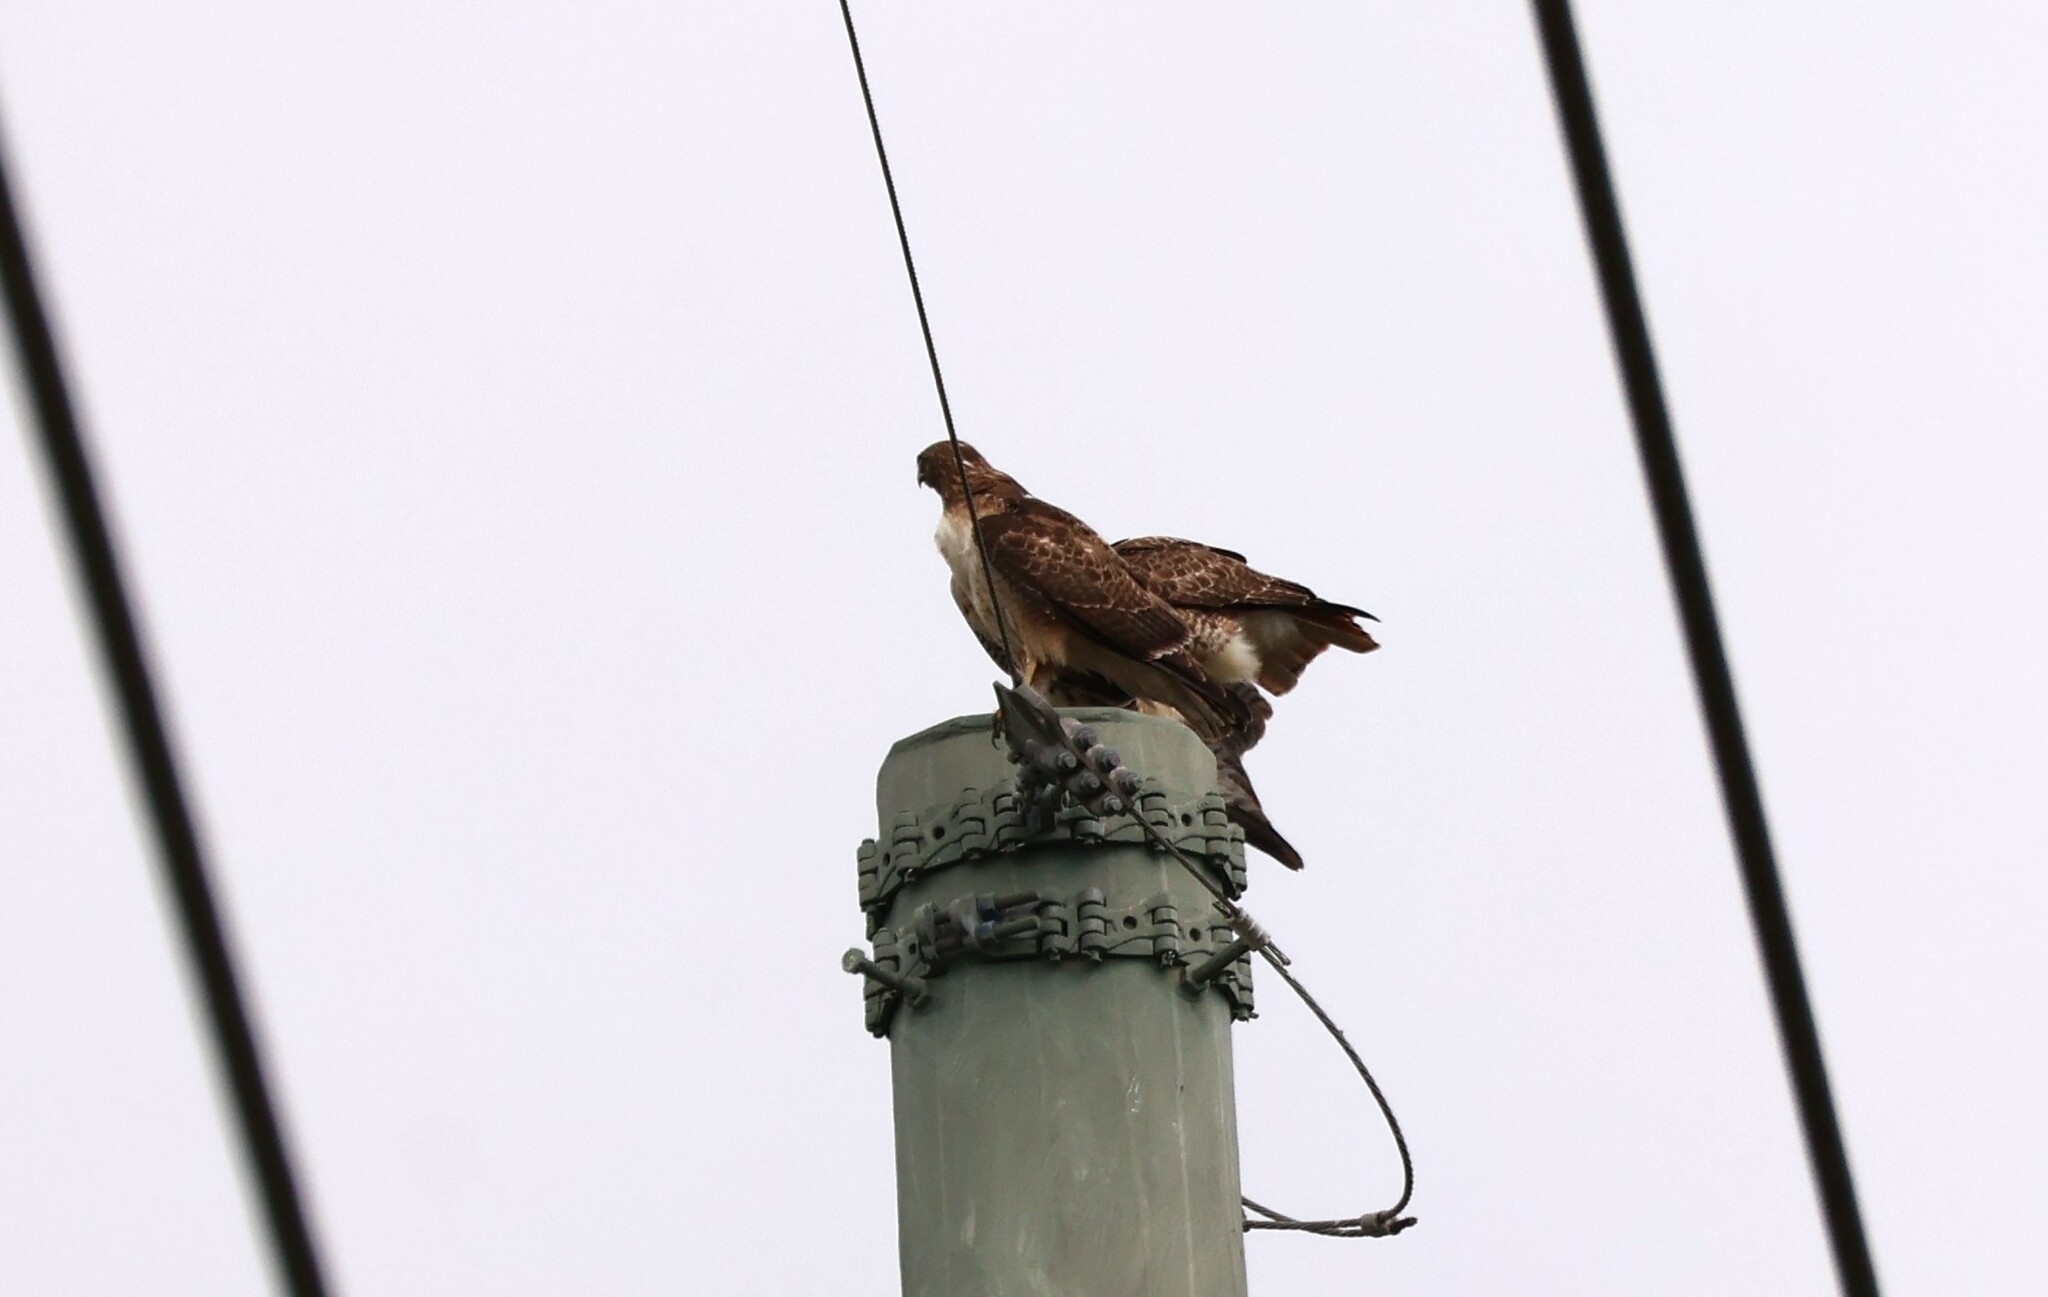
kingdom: Animalia
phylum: Chordata
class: Aves
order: Accipitriformes
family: Accipitridae
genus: Buteo
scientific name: Buteo jamaicensis
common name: Red-tailed hawk
